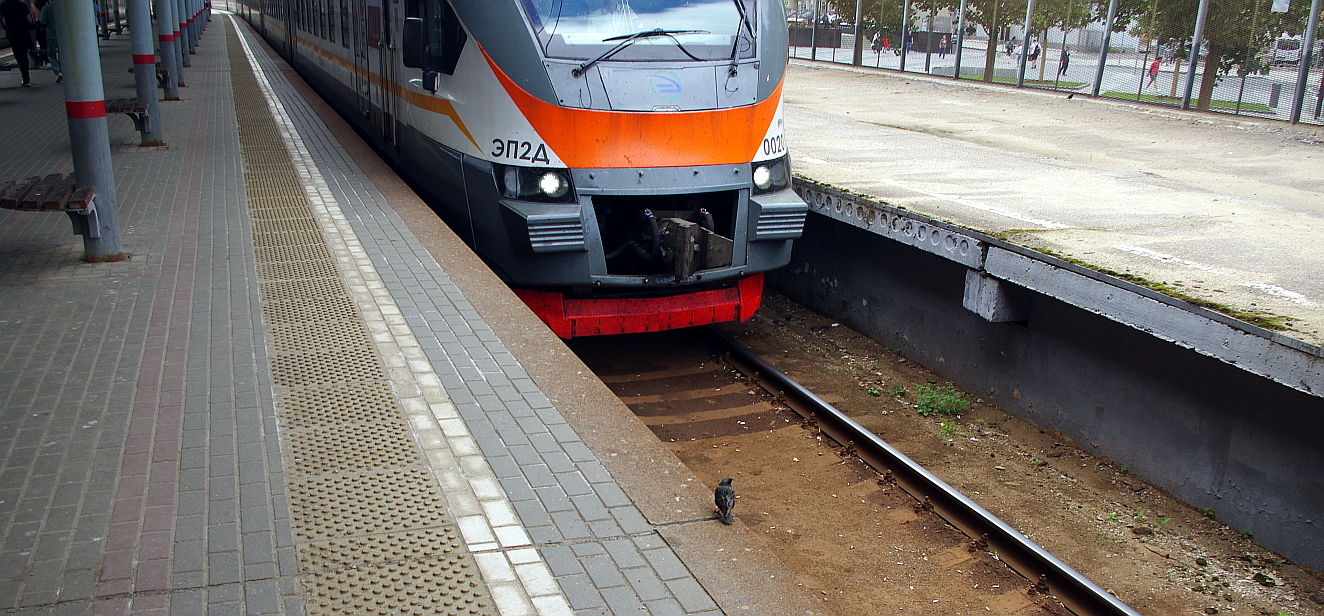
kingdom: Animalia
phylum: Chordata
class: Aves
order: Passeriformes
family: Sturnidae
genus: Sturnus
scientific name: Sturnus vulgaris
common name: Common starling
